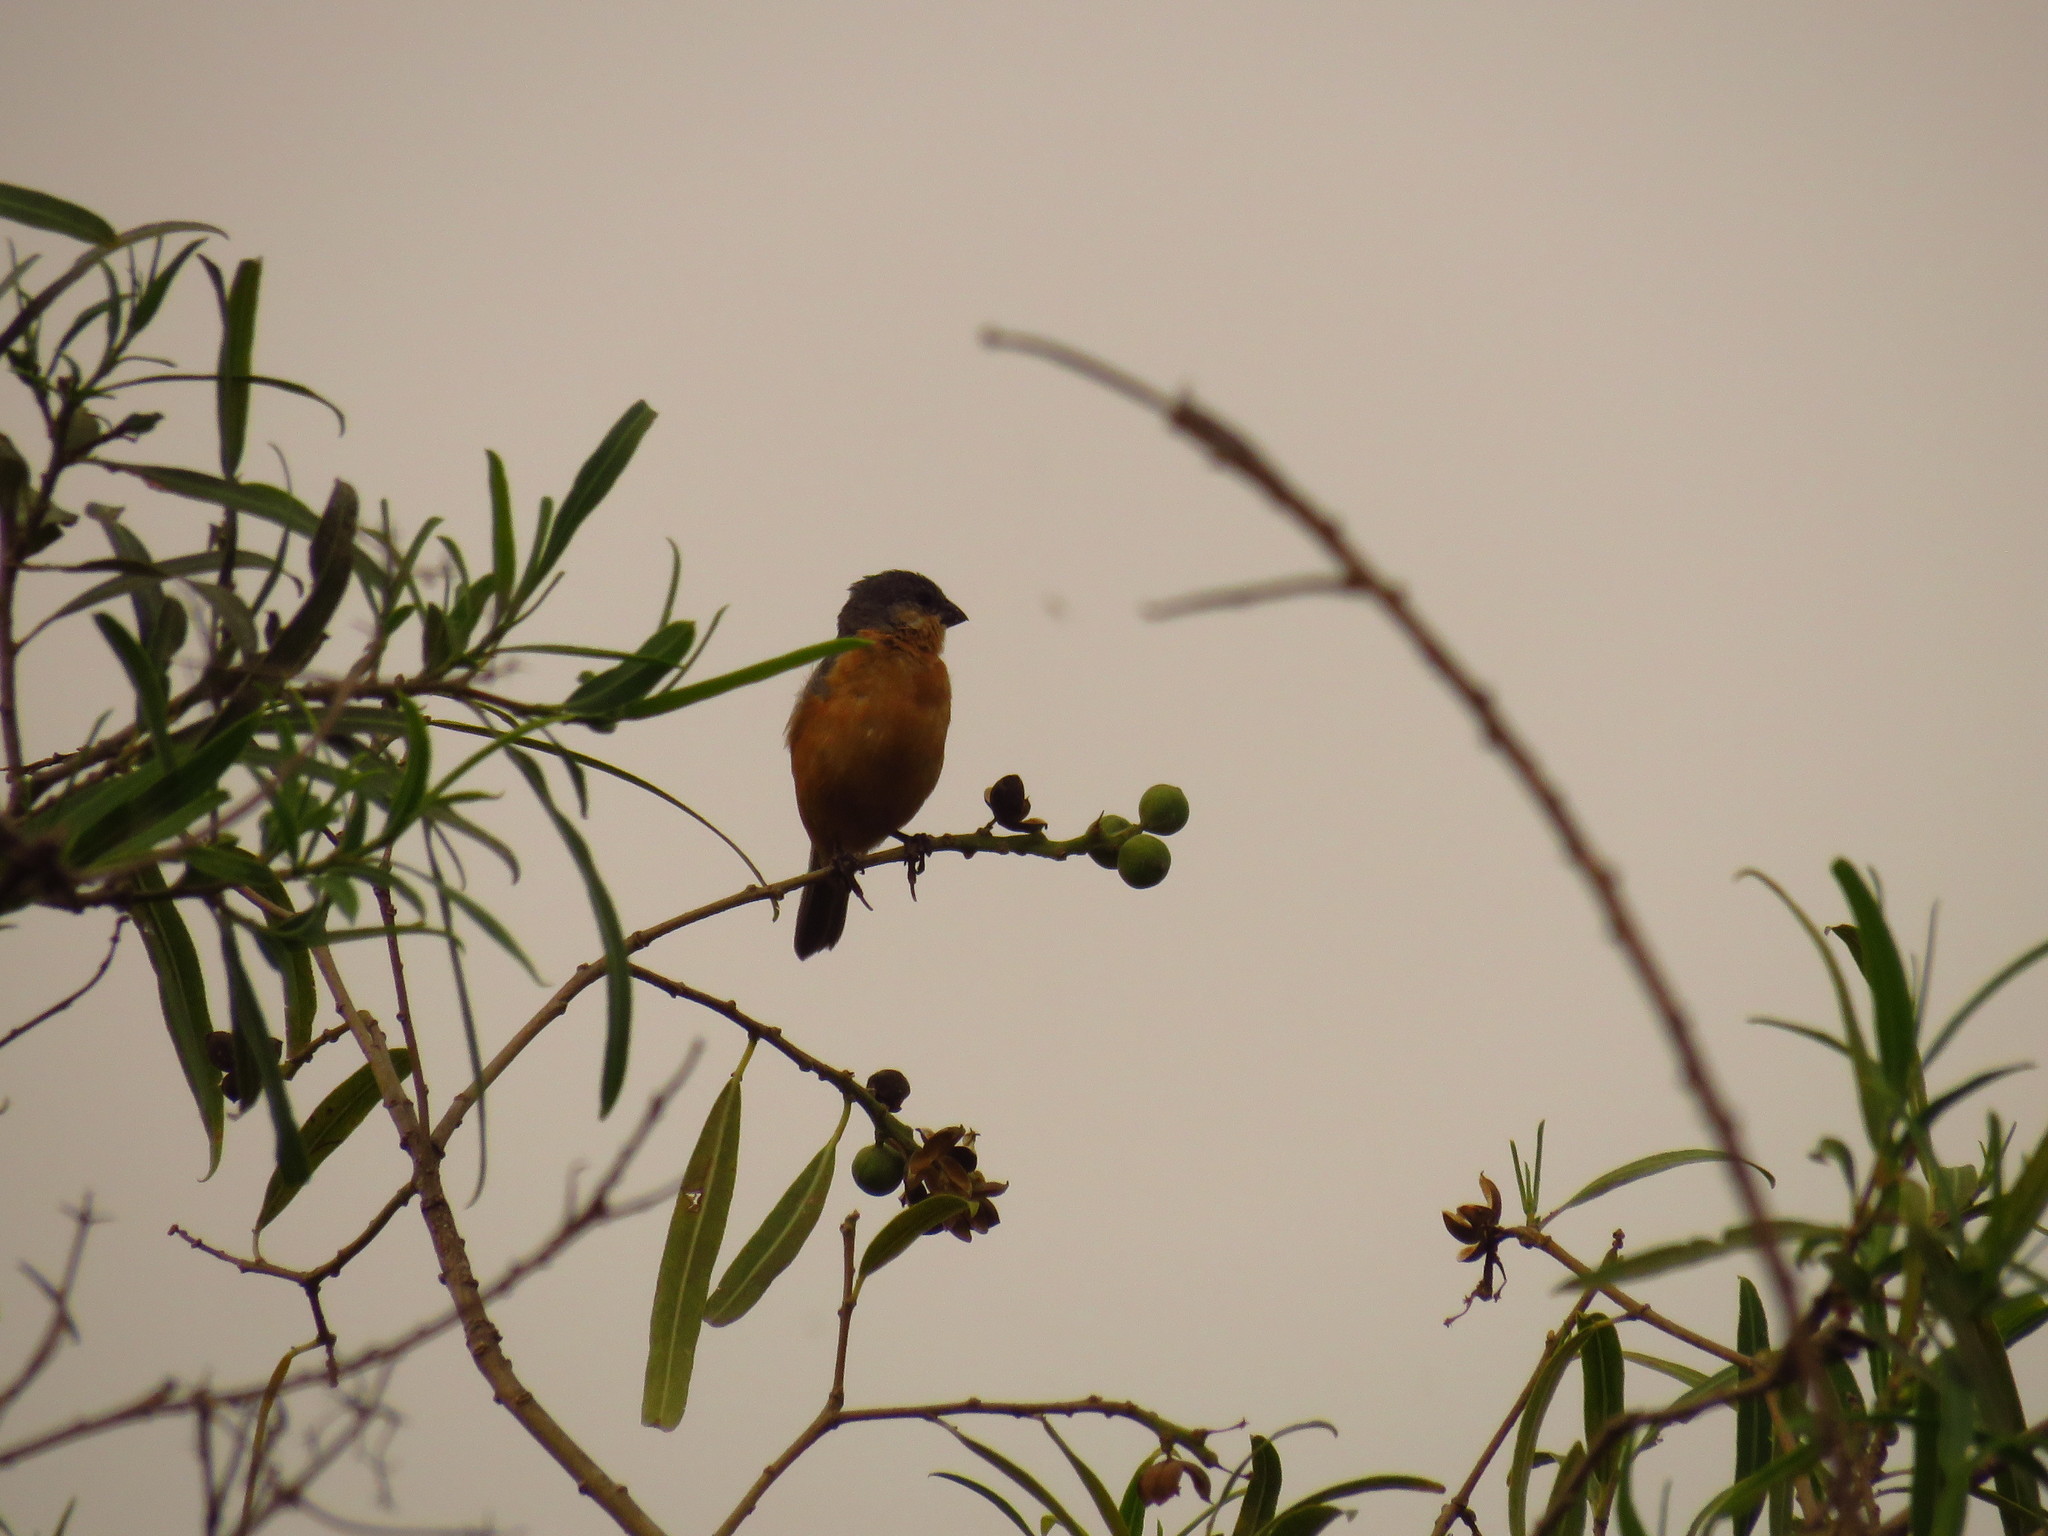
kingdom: Animalia
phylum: Chordata
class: Aves
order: Passeriformes
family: Thraupidae
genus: Sporophila
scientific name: Sporophila hypoxantha
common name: Tawny-bellied seedeater
